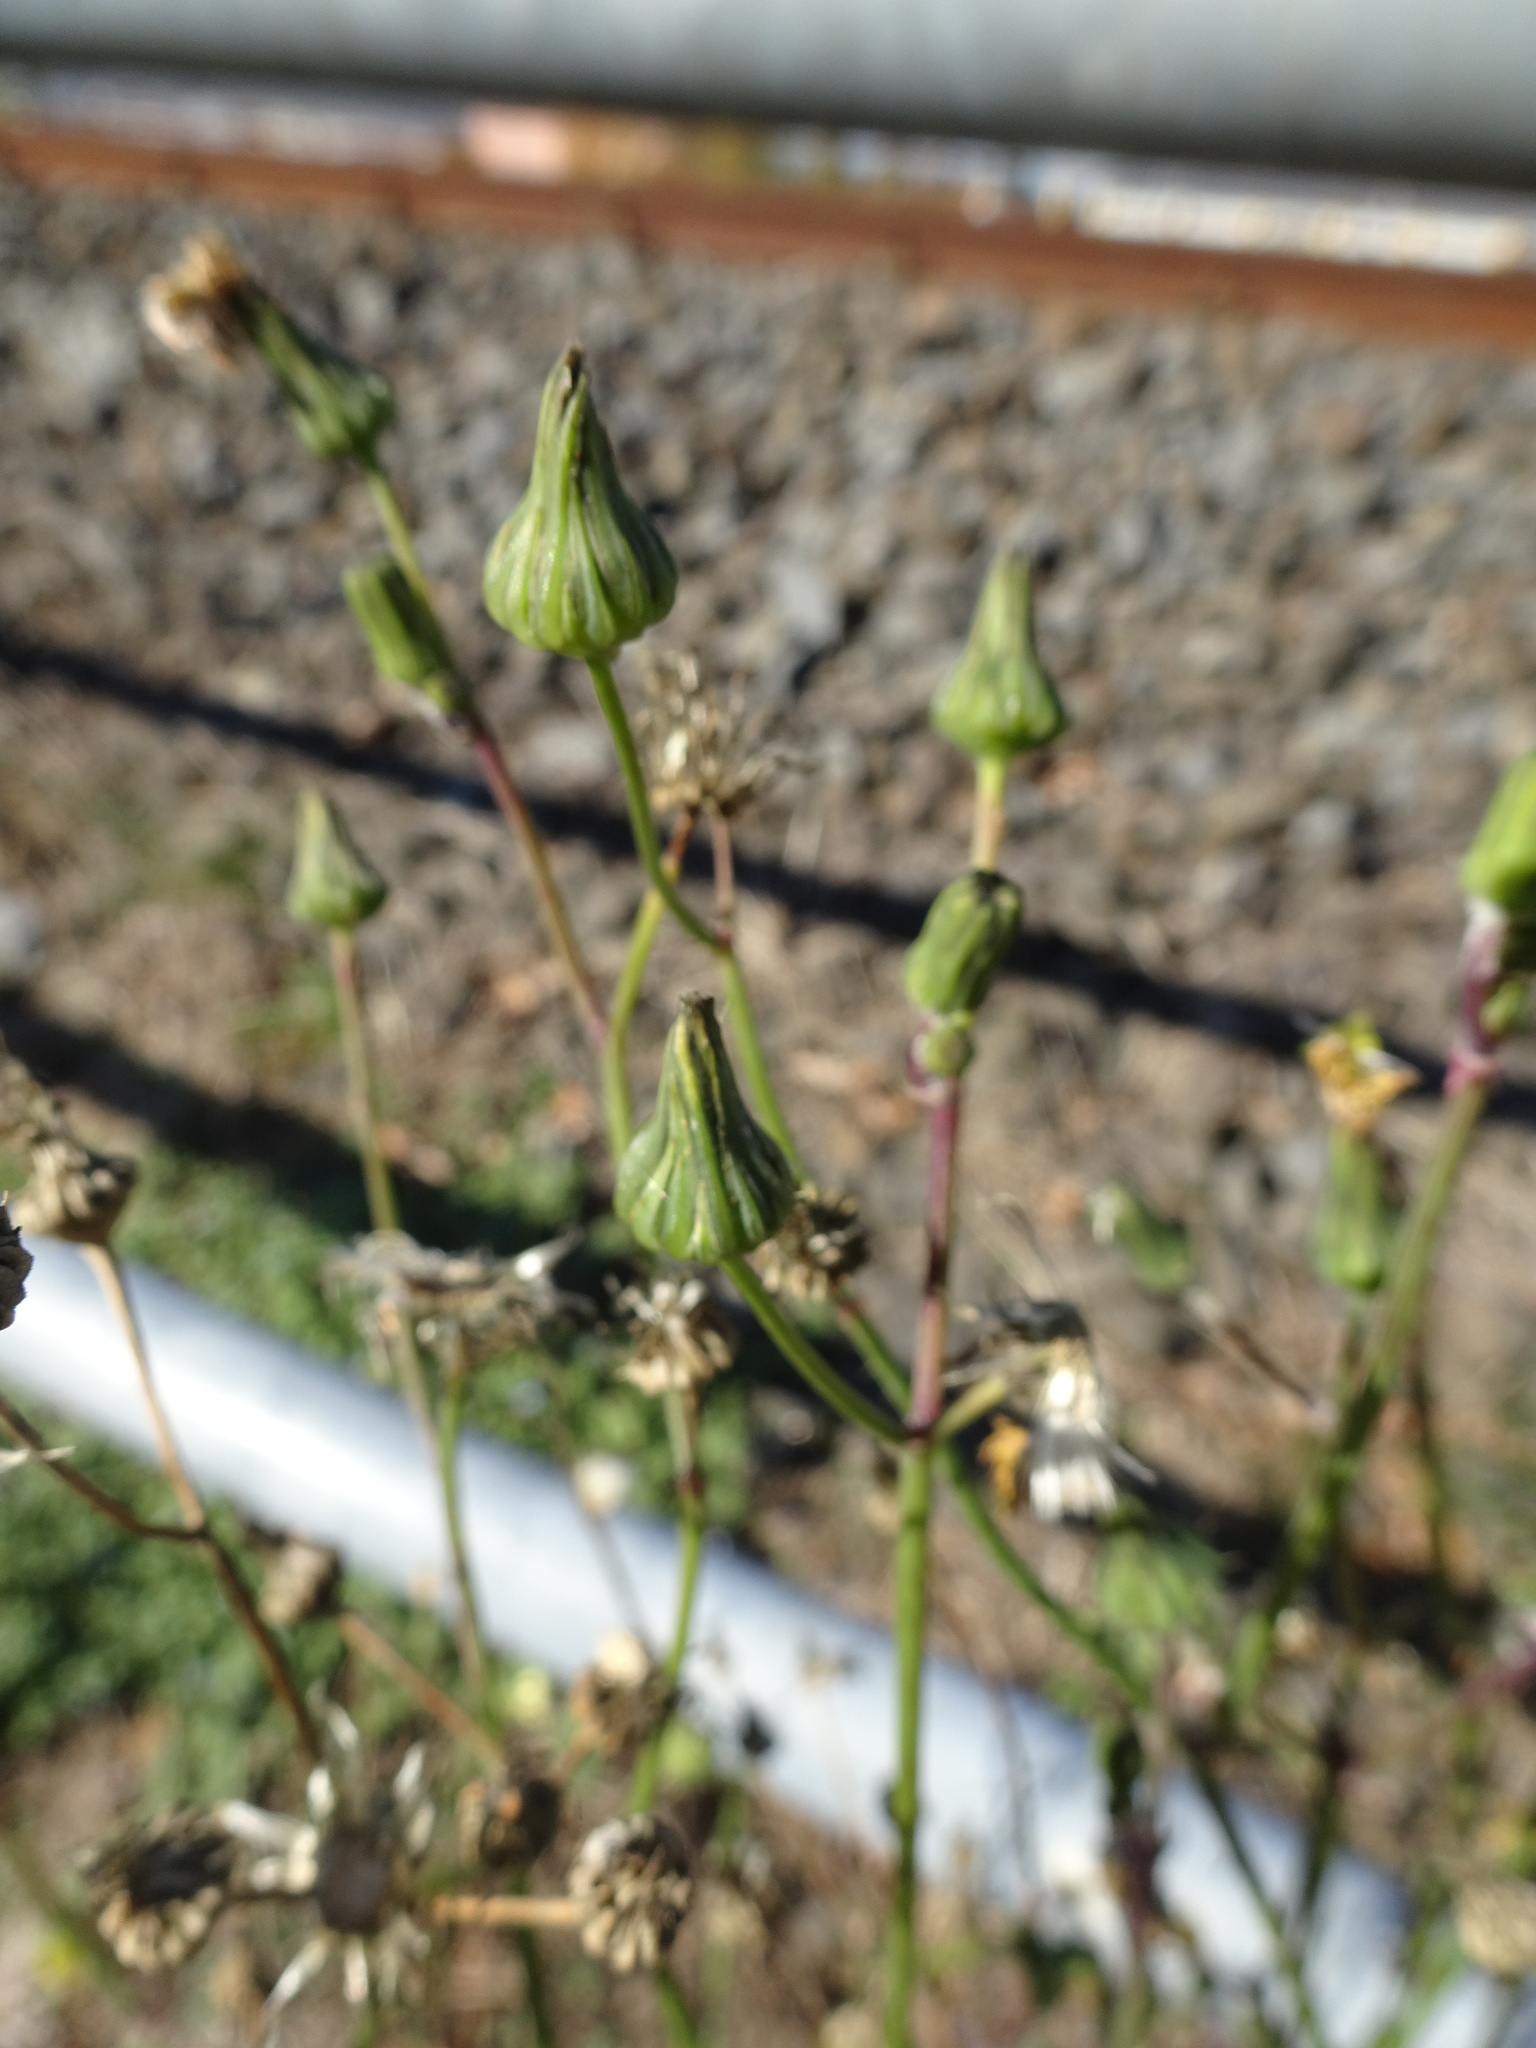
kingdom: Plantae
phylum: Tracheophyta
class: Magnoliopsida
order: Asterales
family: Asteraceae
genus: Sonchus
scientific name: Sonchus oleraceus
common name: Common sowthistle
